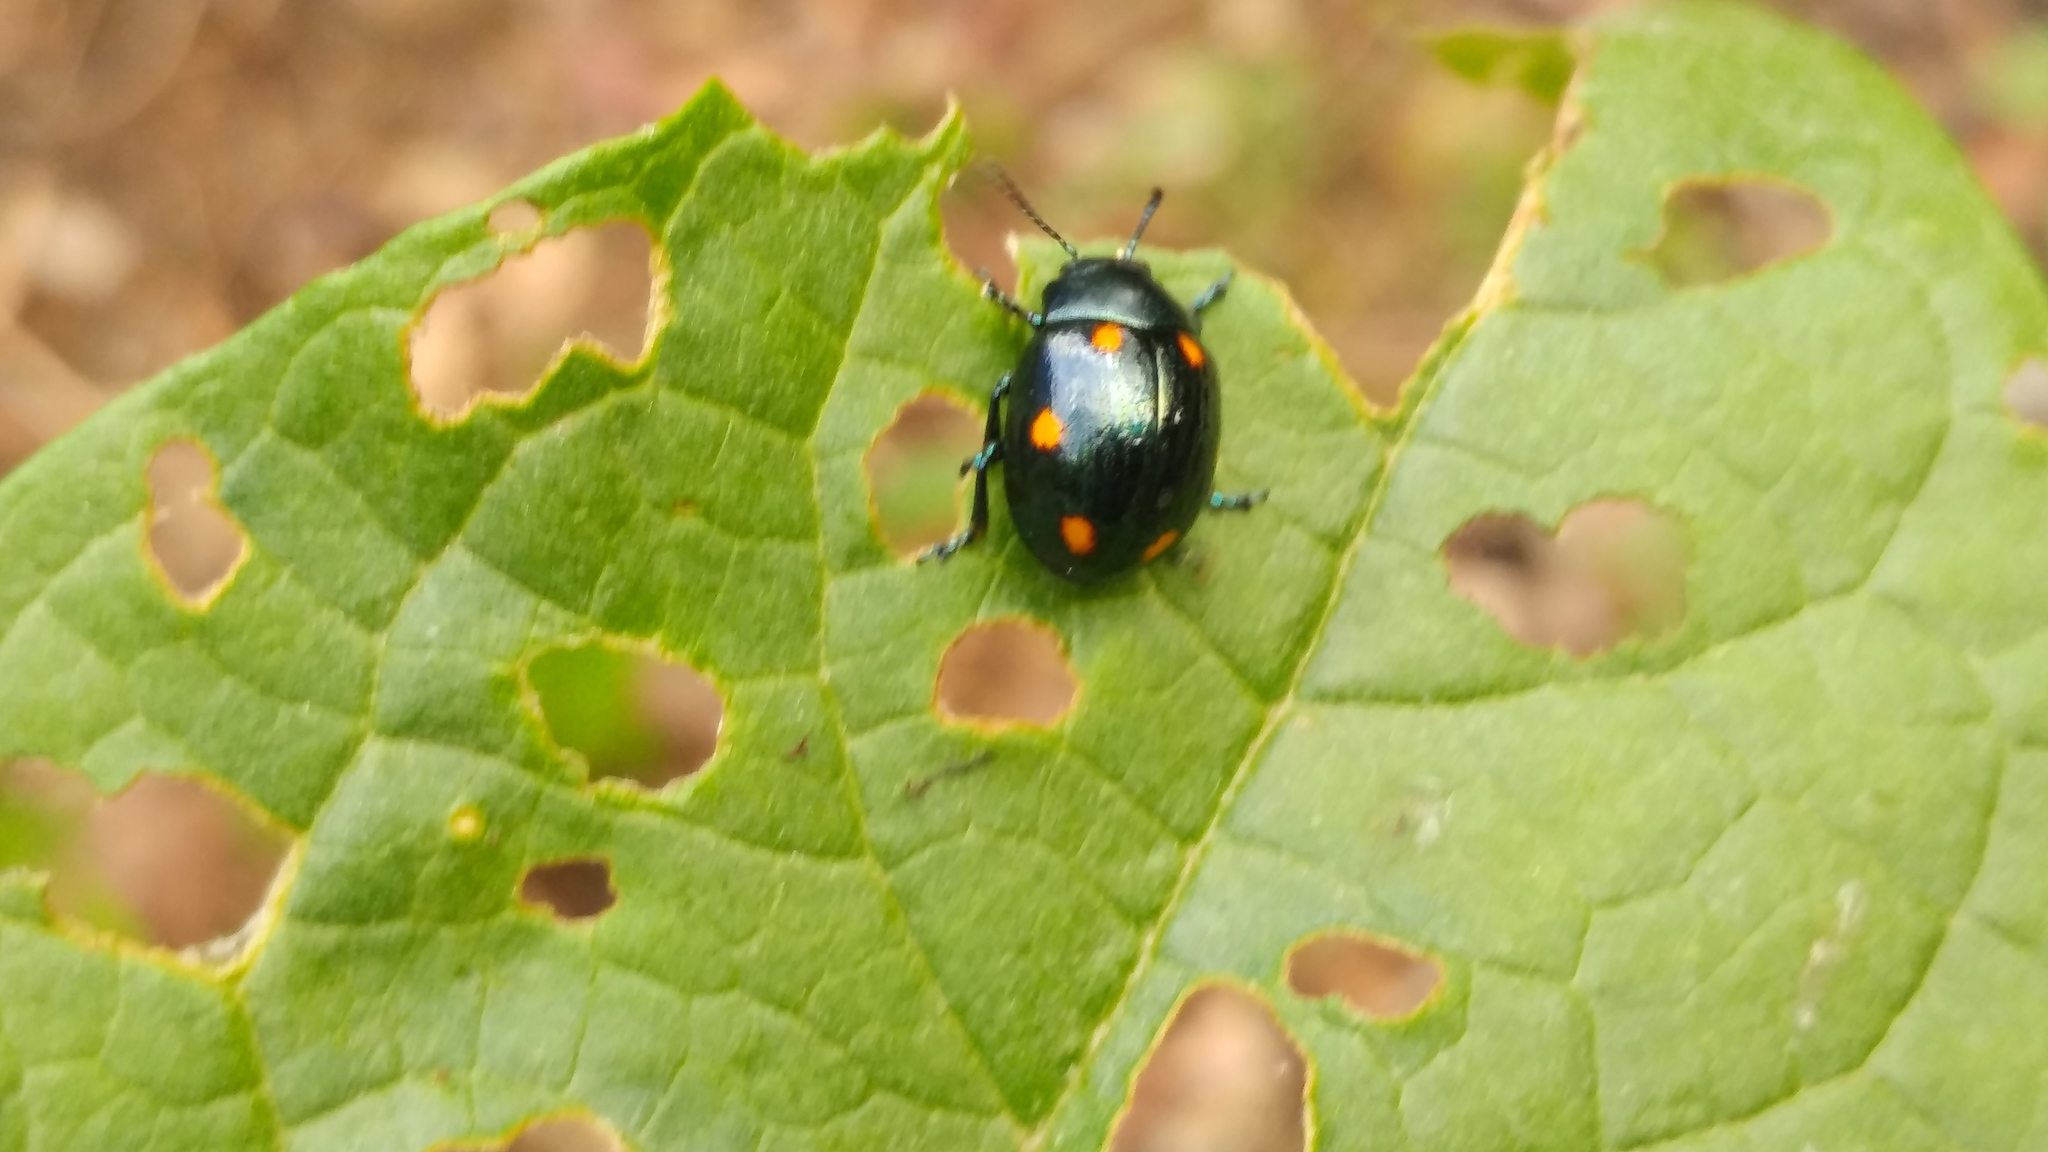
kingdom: Animalia
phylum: Arthropoda
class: Insecta
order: Coleoptera
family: Chrysomelidae
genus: Labidomera
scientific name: Labidomera
